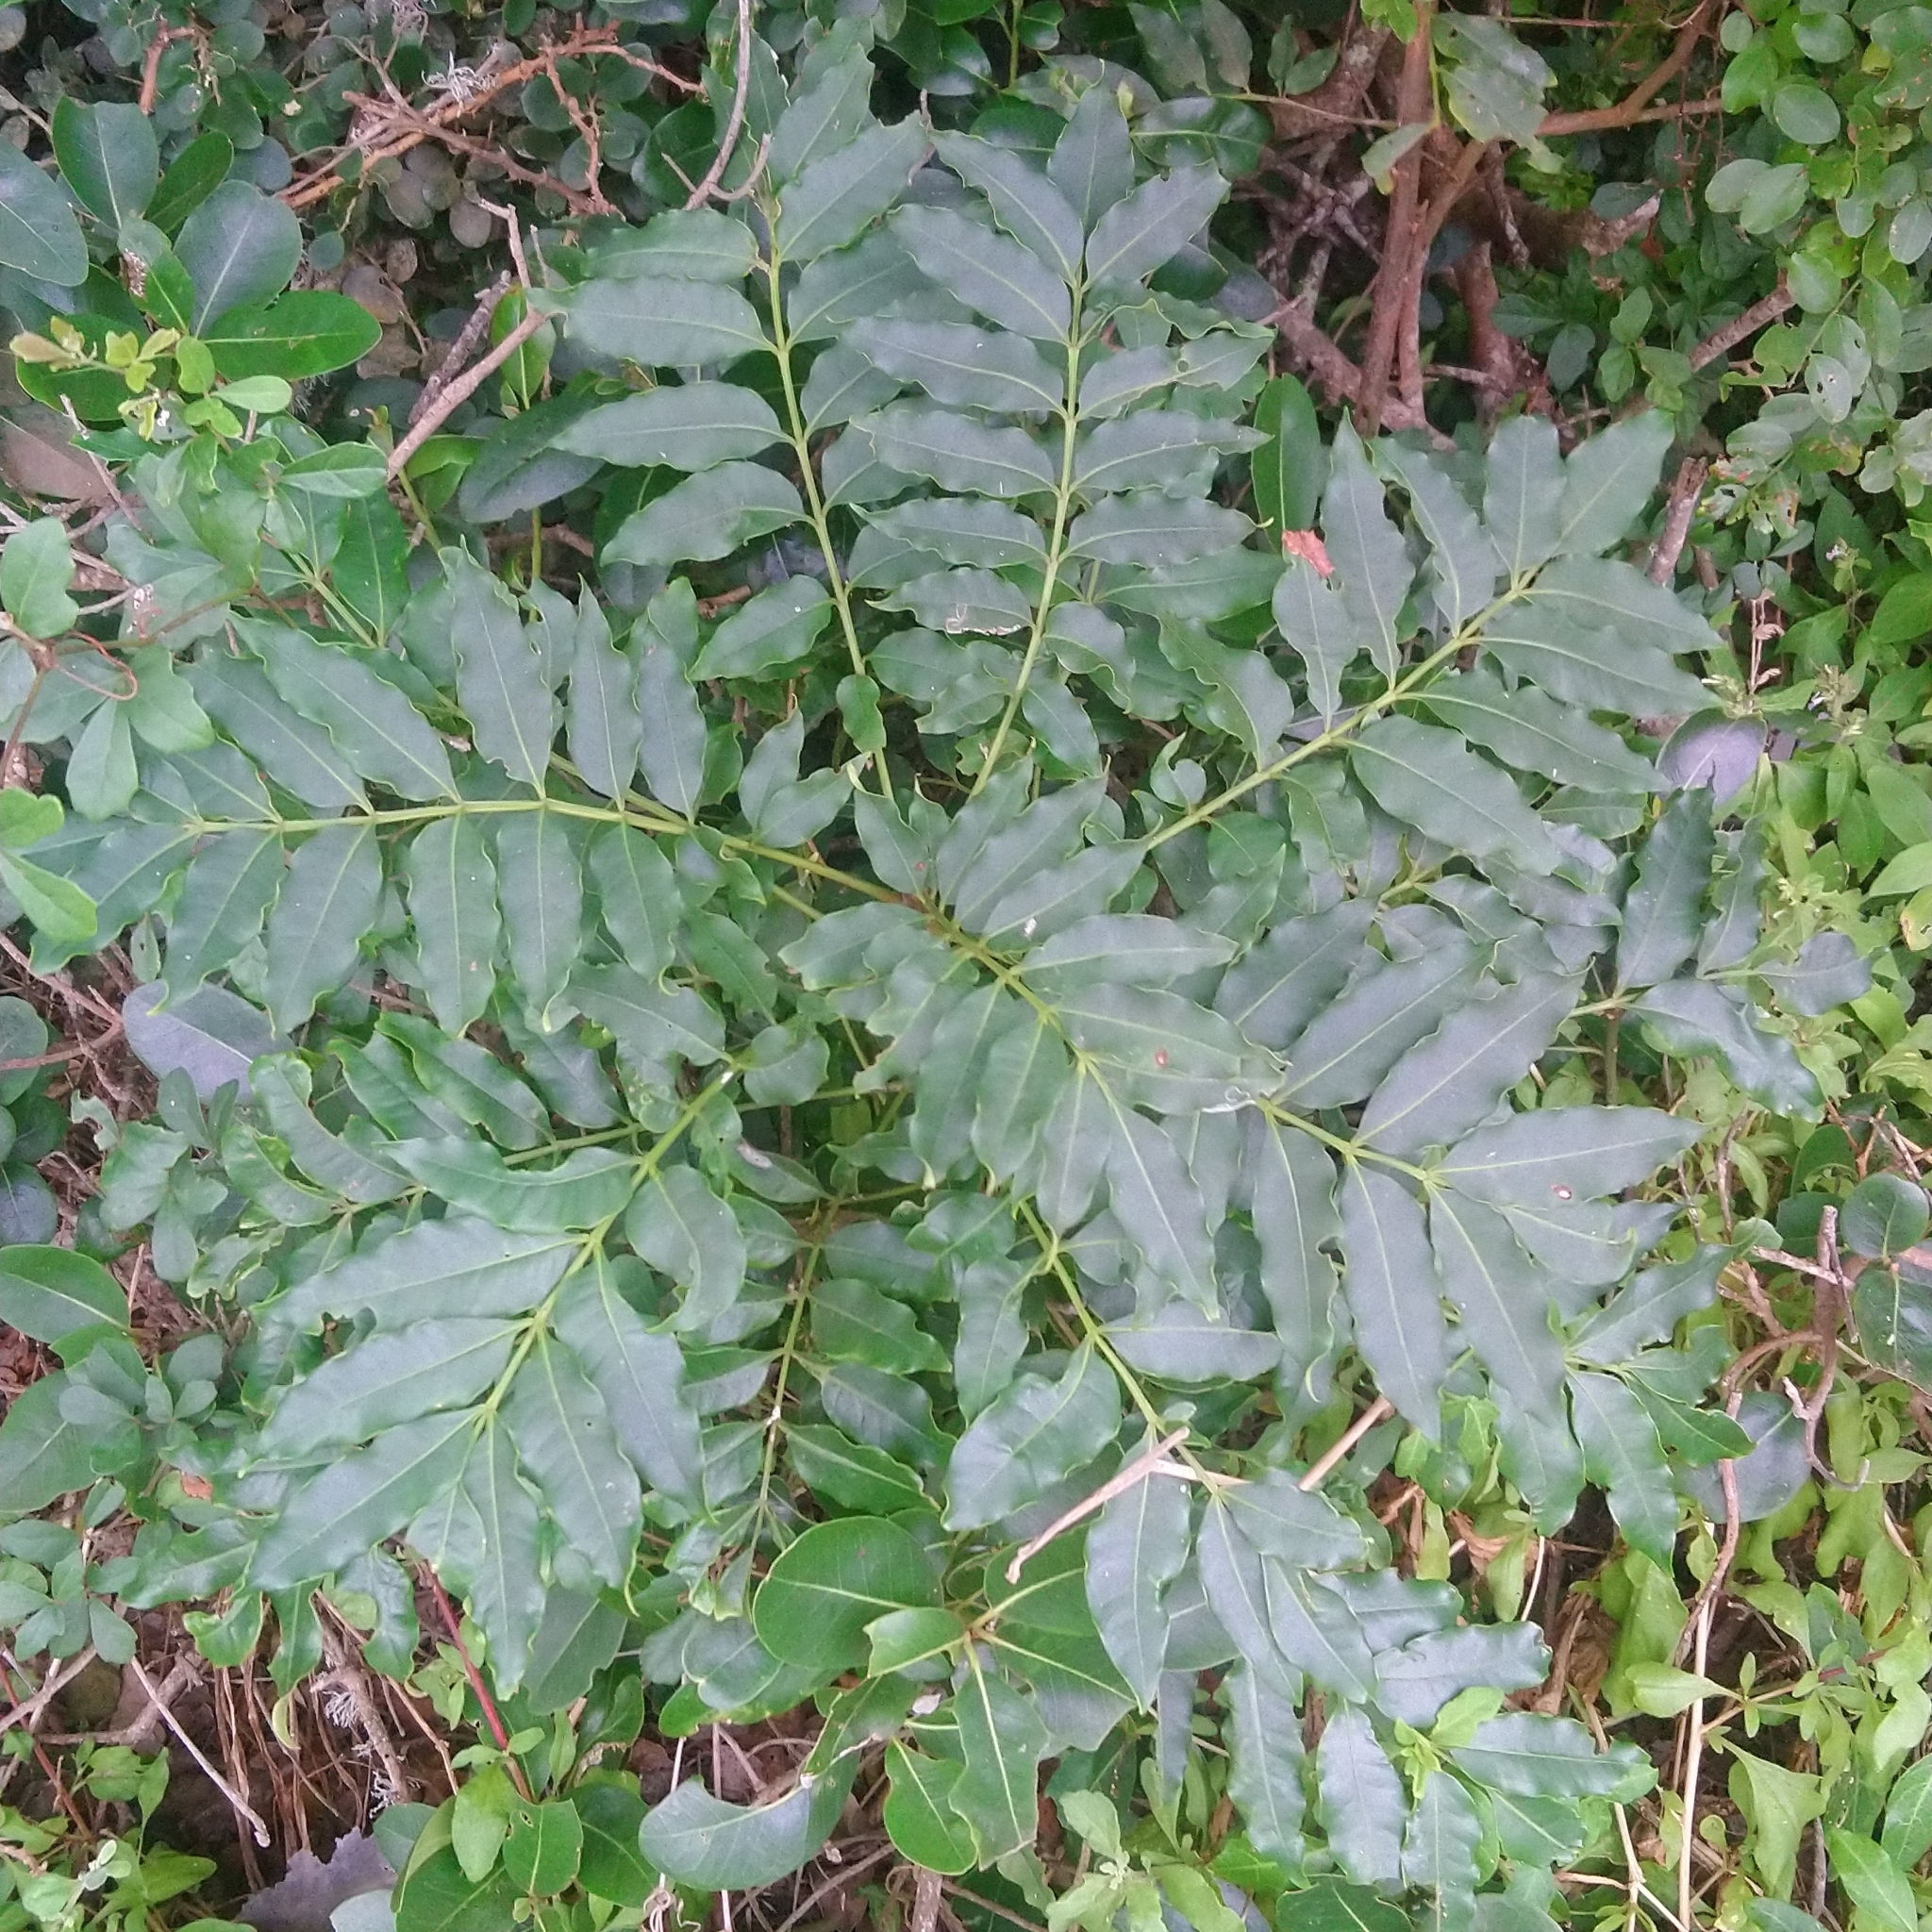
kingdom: Plantae
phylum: Tracheophyta
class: Magnoliopsida
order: Sapindales
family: Meliaceae
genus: Ekebergia
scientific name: Ekebergia capensis
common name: Cape-ash
